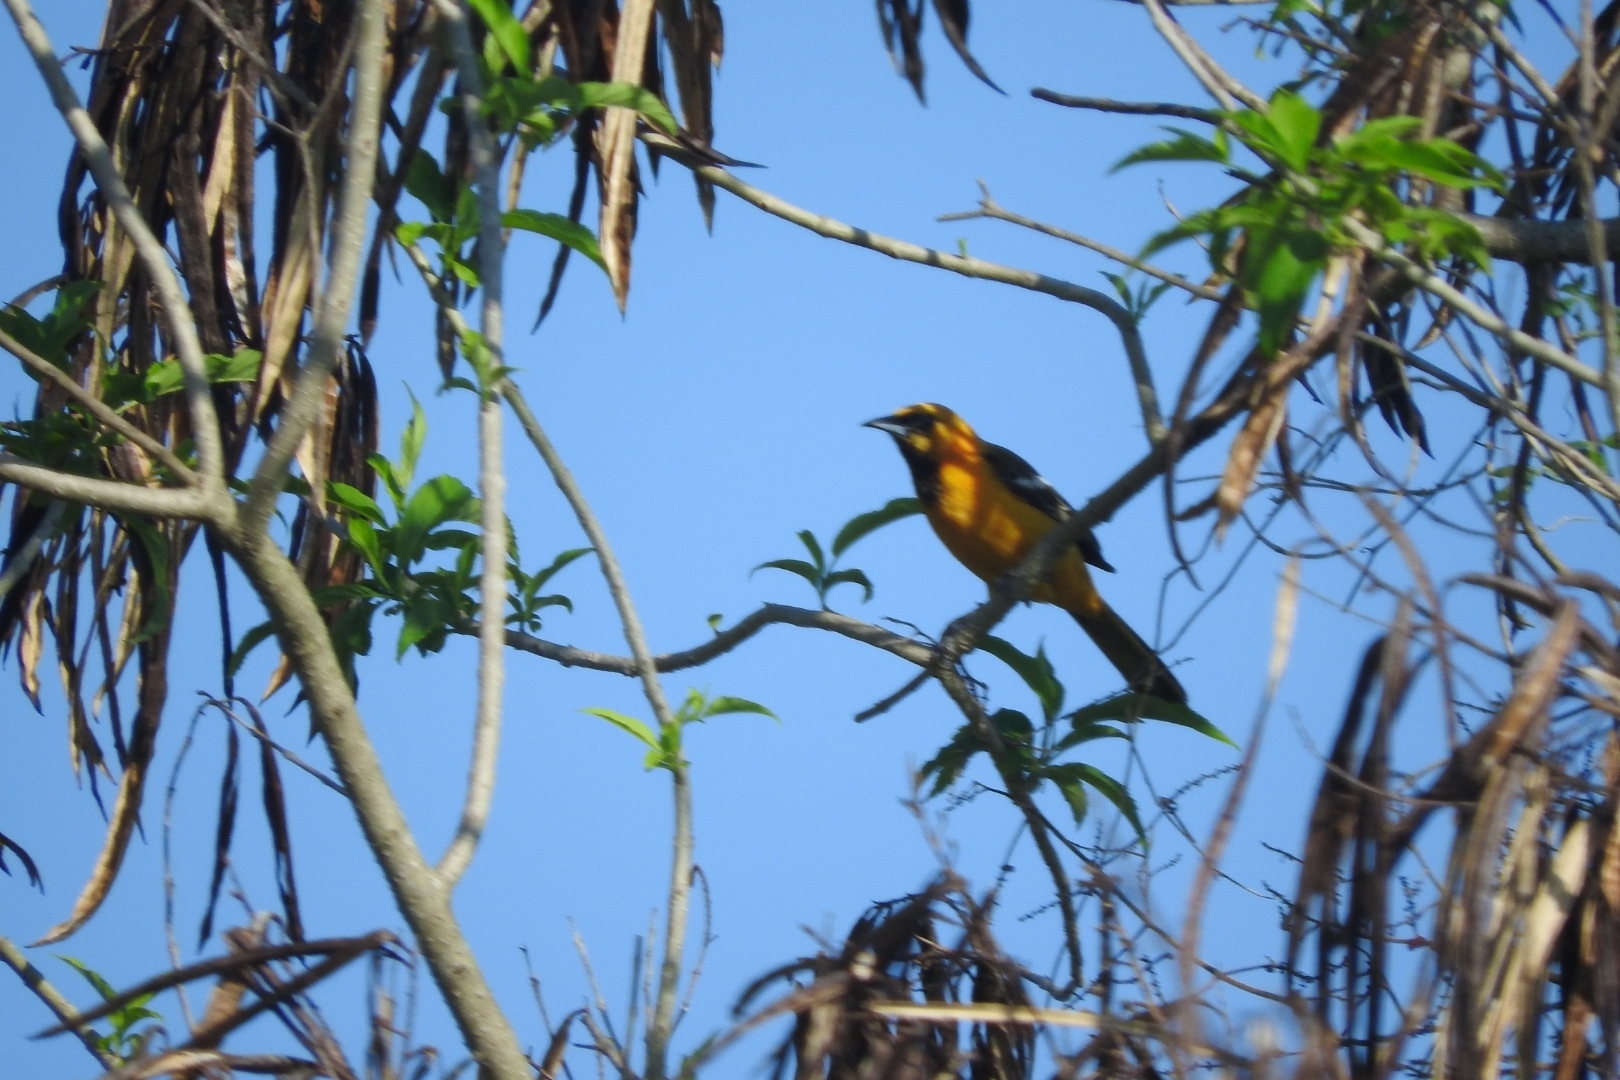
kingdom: Animalia
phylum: Chordata
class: Aves
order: Passeriformes
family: Icteridae
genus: Icterus
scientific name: Icterus gularis
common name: Altamira oriole
